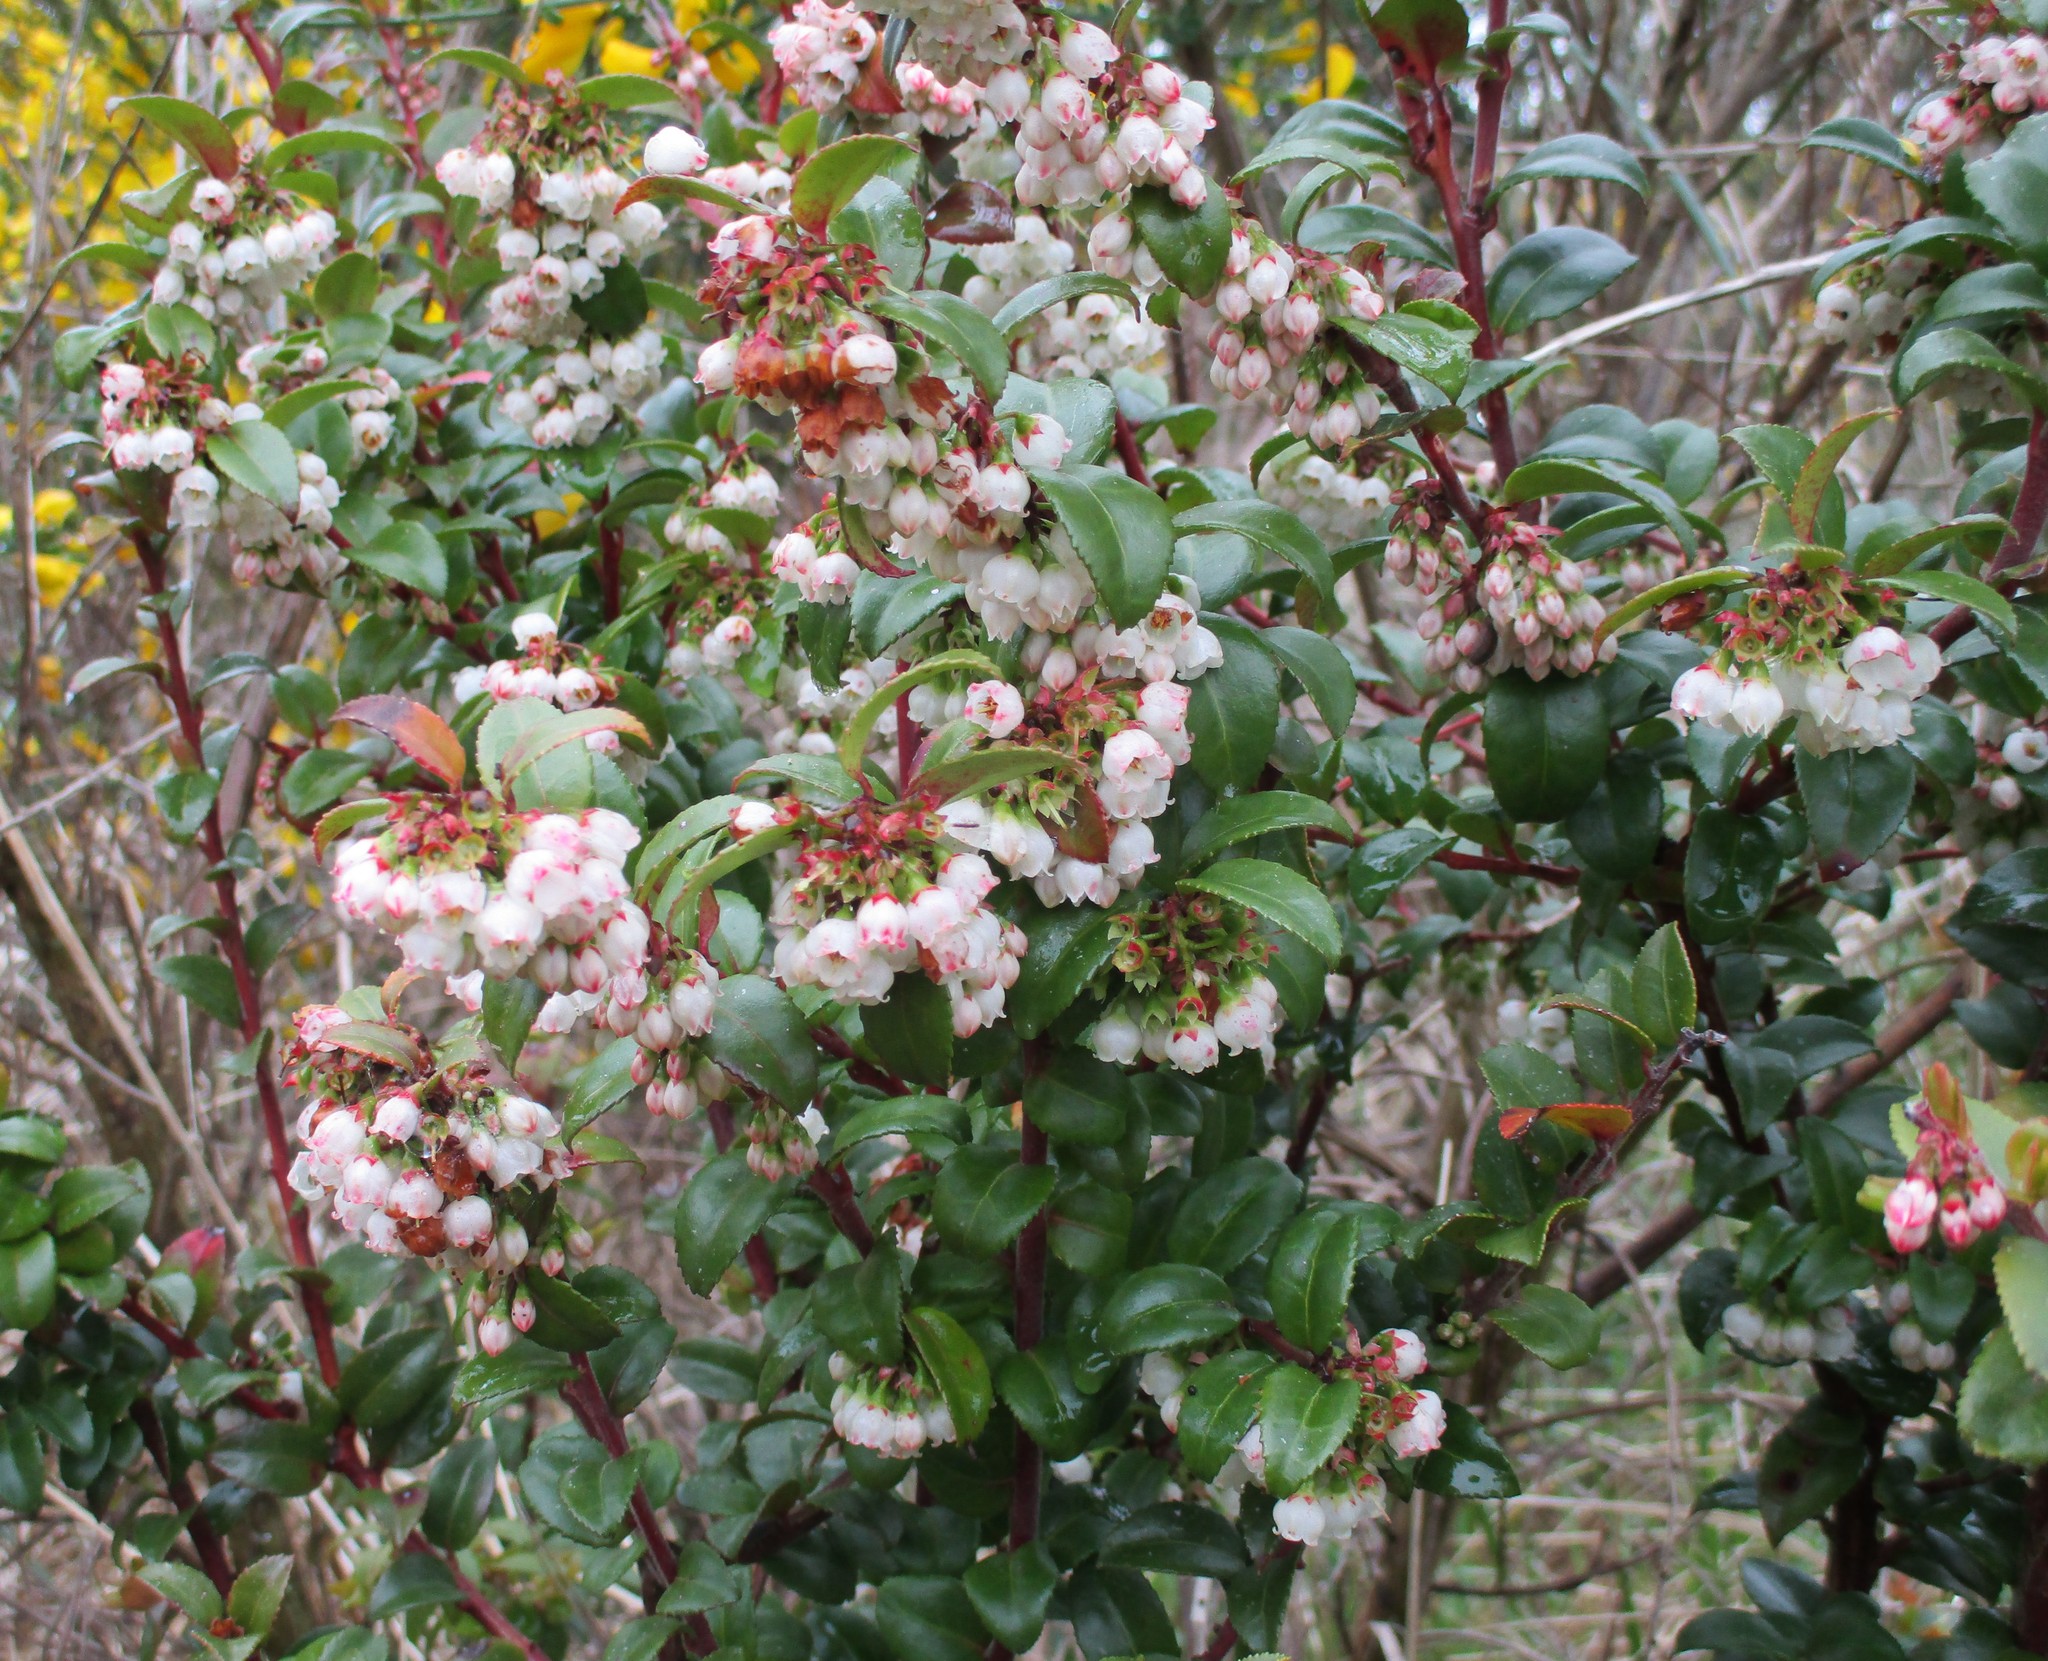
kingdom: Plantae
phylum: Tracheophyta
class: Magnoliopsida
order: Ericales
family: Ericaceae
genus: Vaccinium
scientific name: Vaccinium ovatum
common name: California-huckleberry
